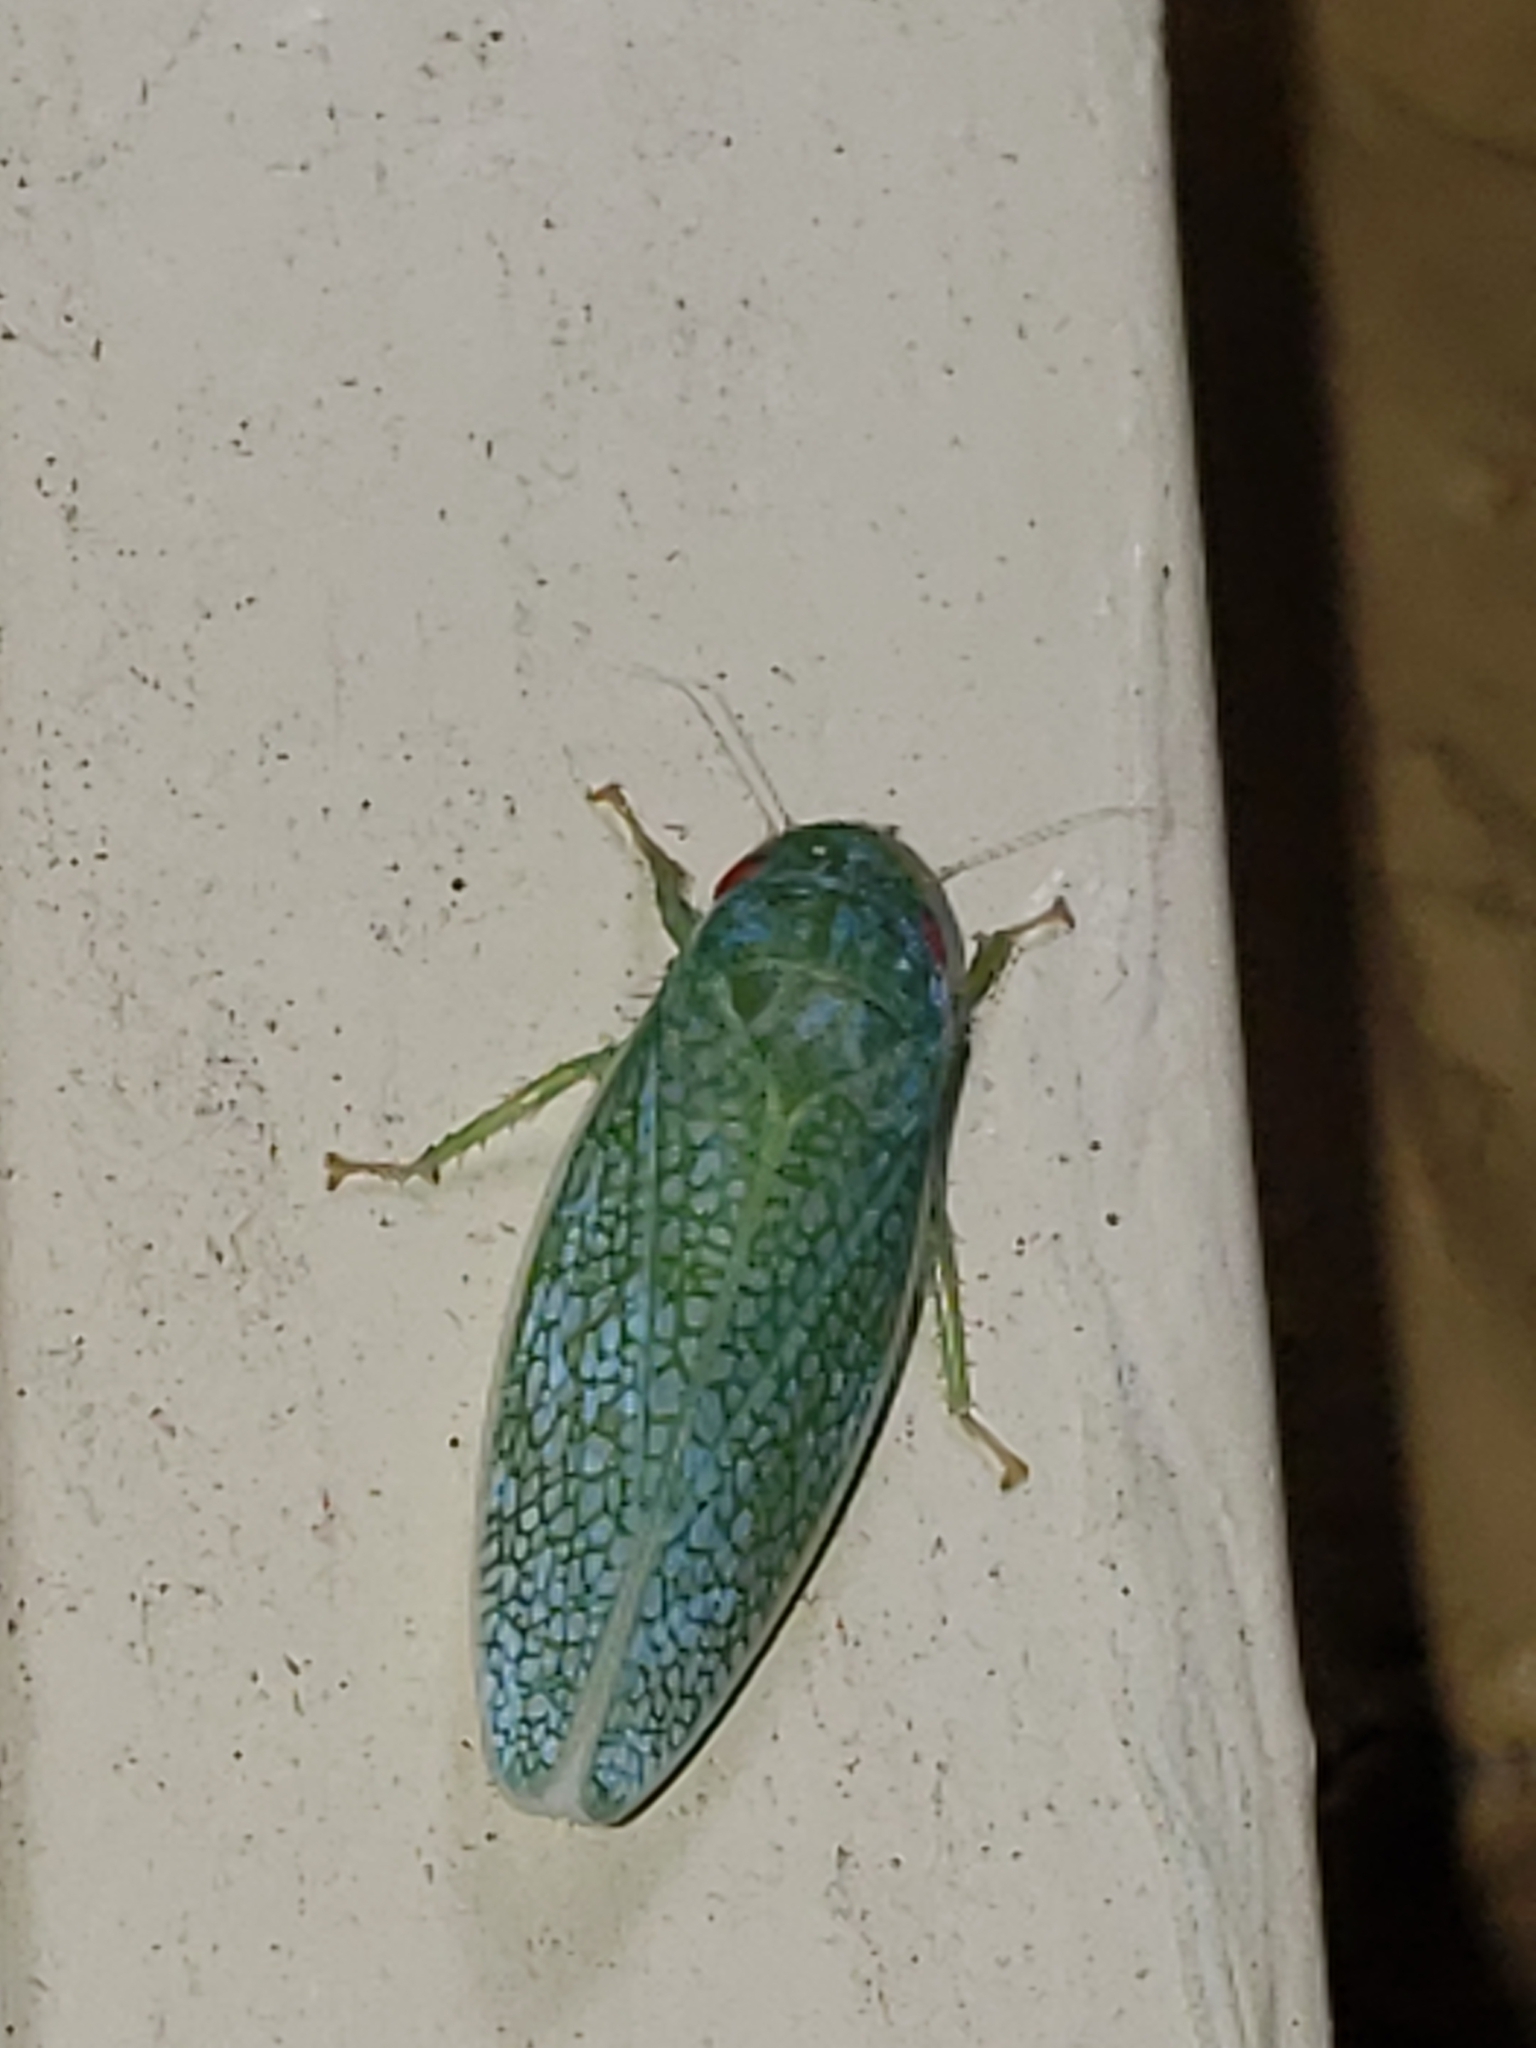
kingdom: Animalia
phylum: Arthropoda
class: Insecta
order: Hemiptera
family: Cicadellidae
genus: Gyponana
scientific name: Gyponana procera
